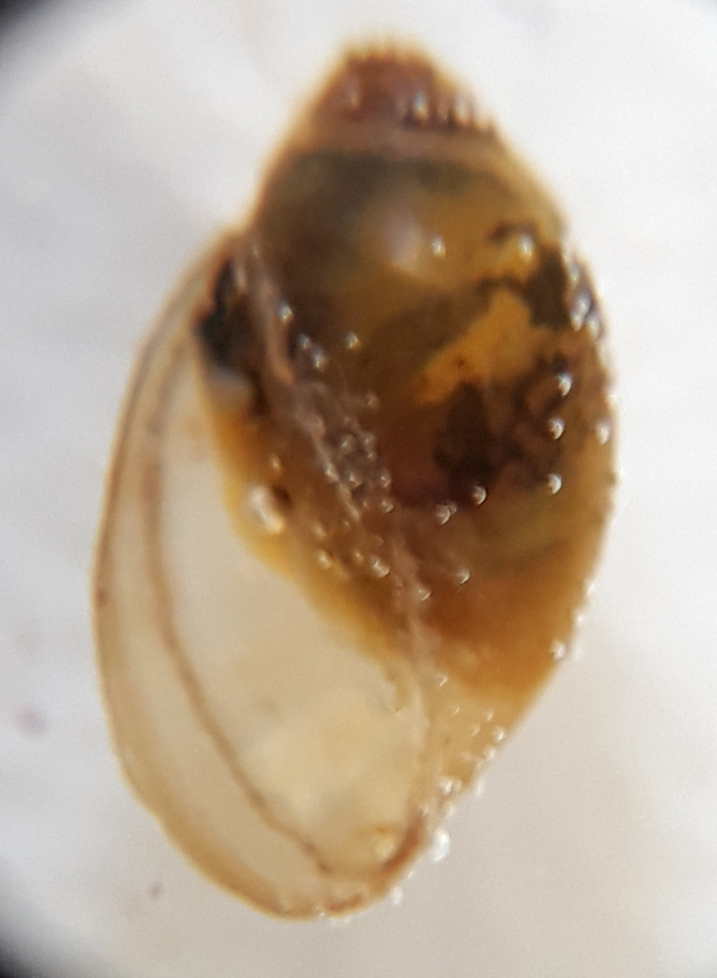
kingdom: Animalia
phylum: Mollusca
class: Gastropoda
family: Physidae
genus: Physa
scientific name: Physa fontinalis
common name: Common bladder snail
